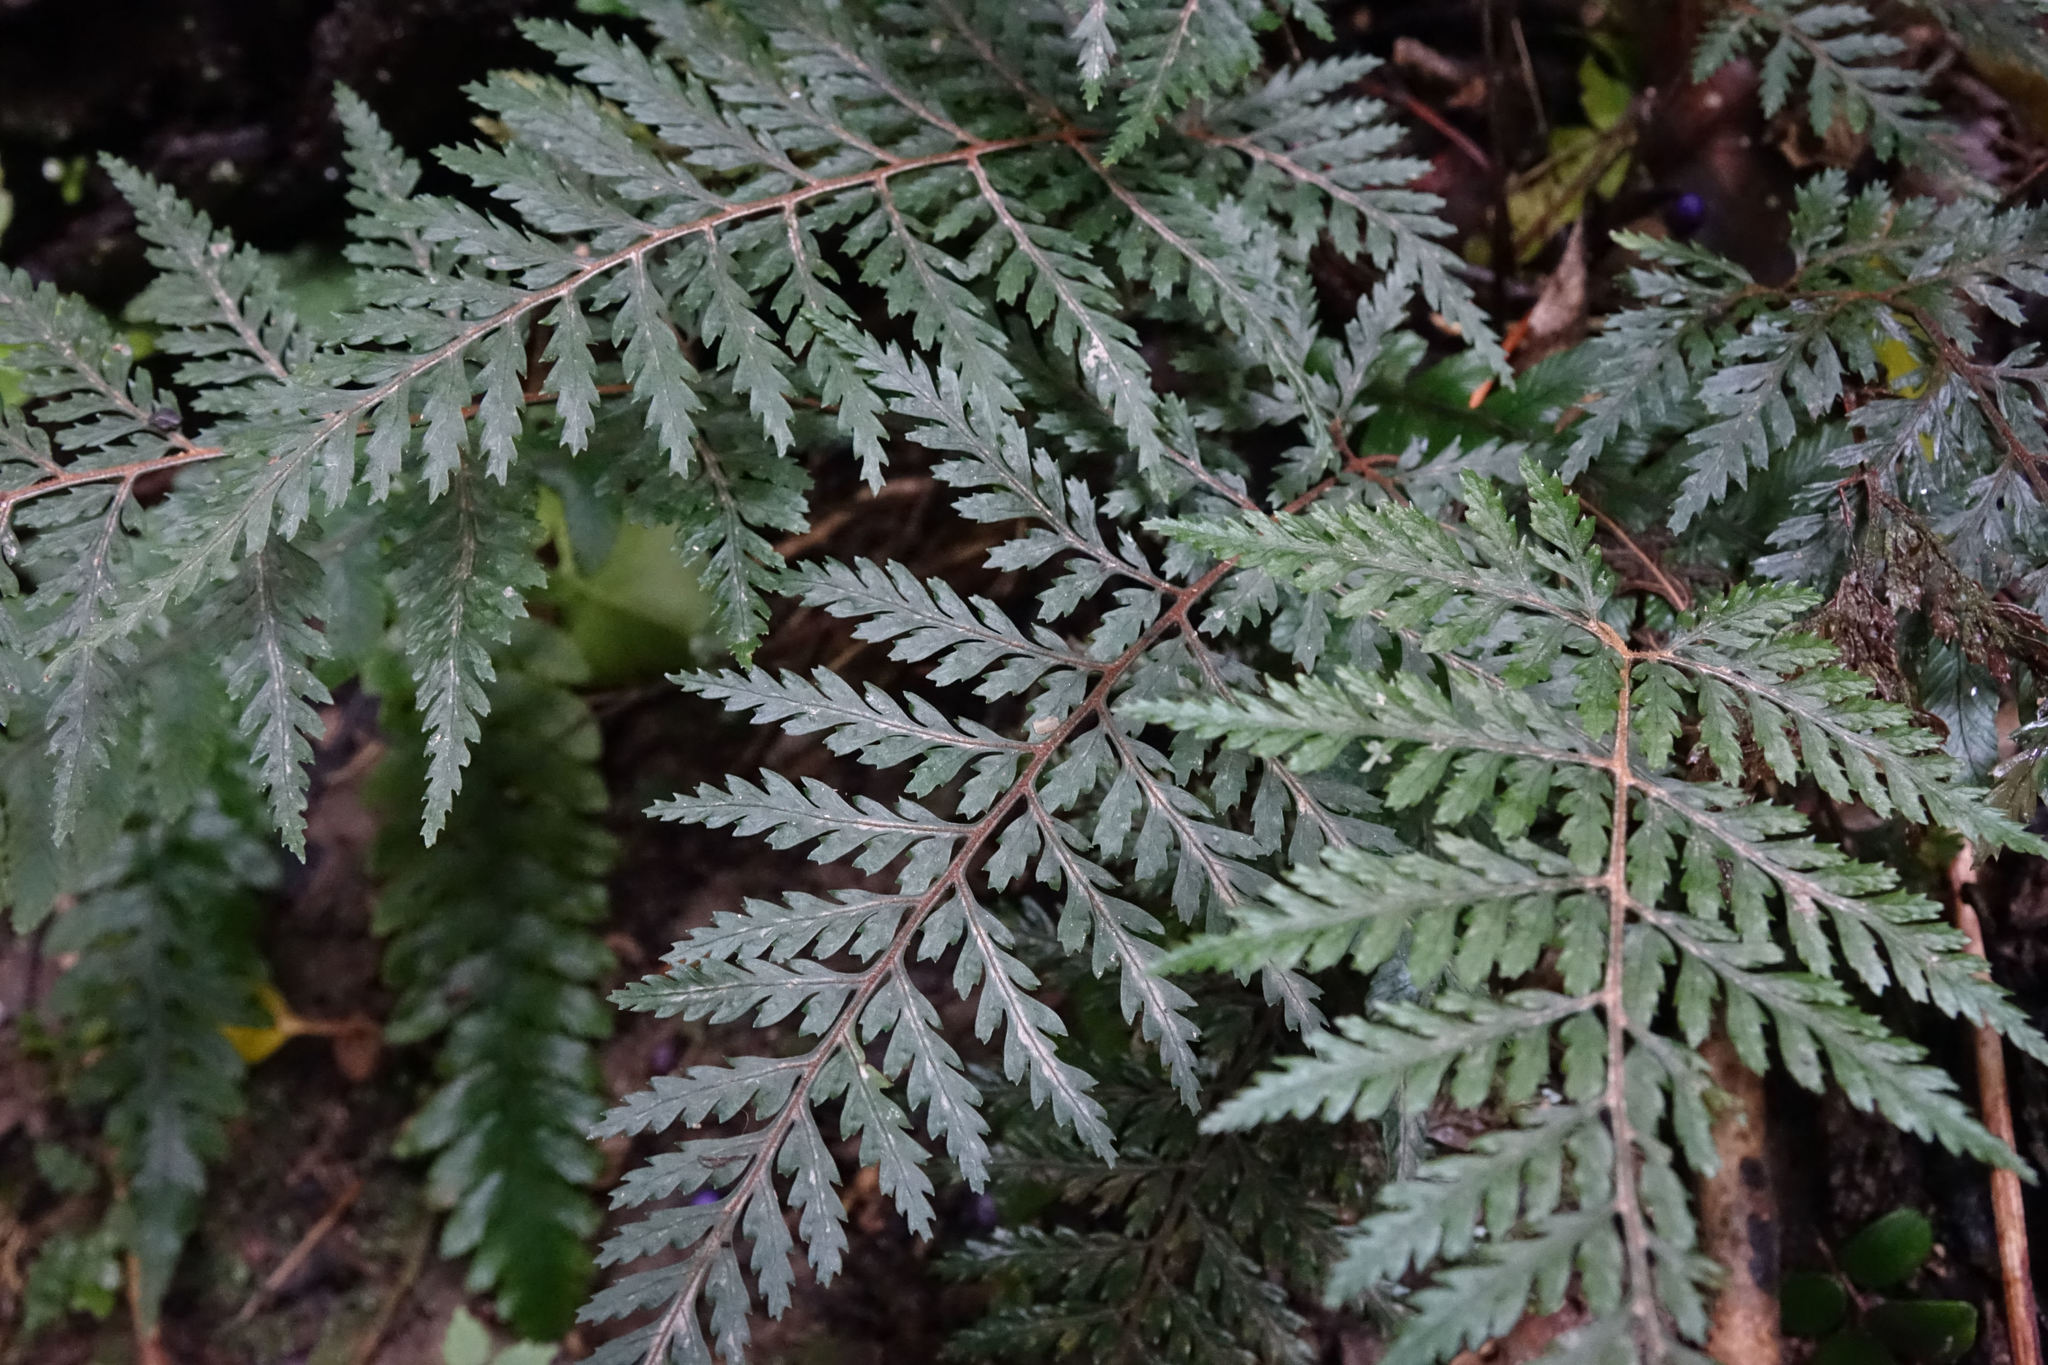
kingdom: Plantae
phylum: Tracheophyta
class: Polypodiopsida
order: Polypodiales
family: Dryopteridaceae
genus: Parapolystichum
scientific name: Parapolystichum glabellum
